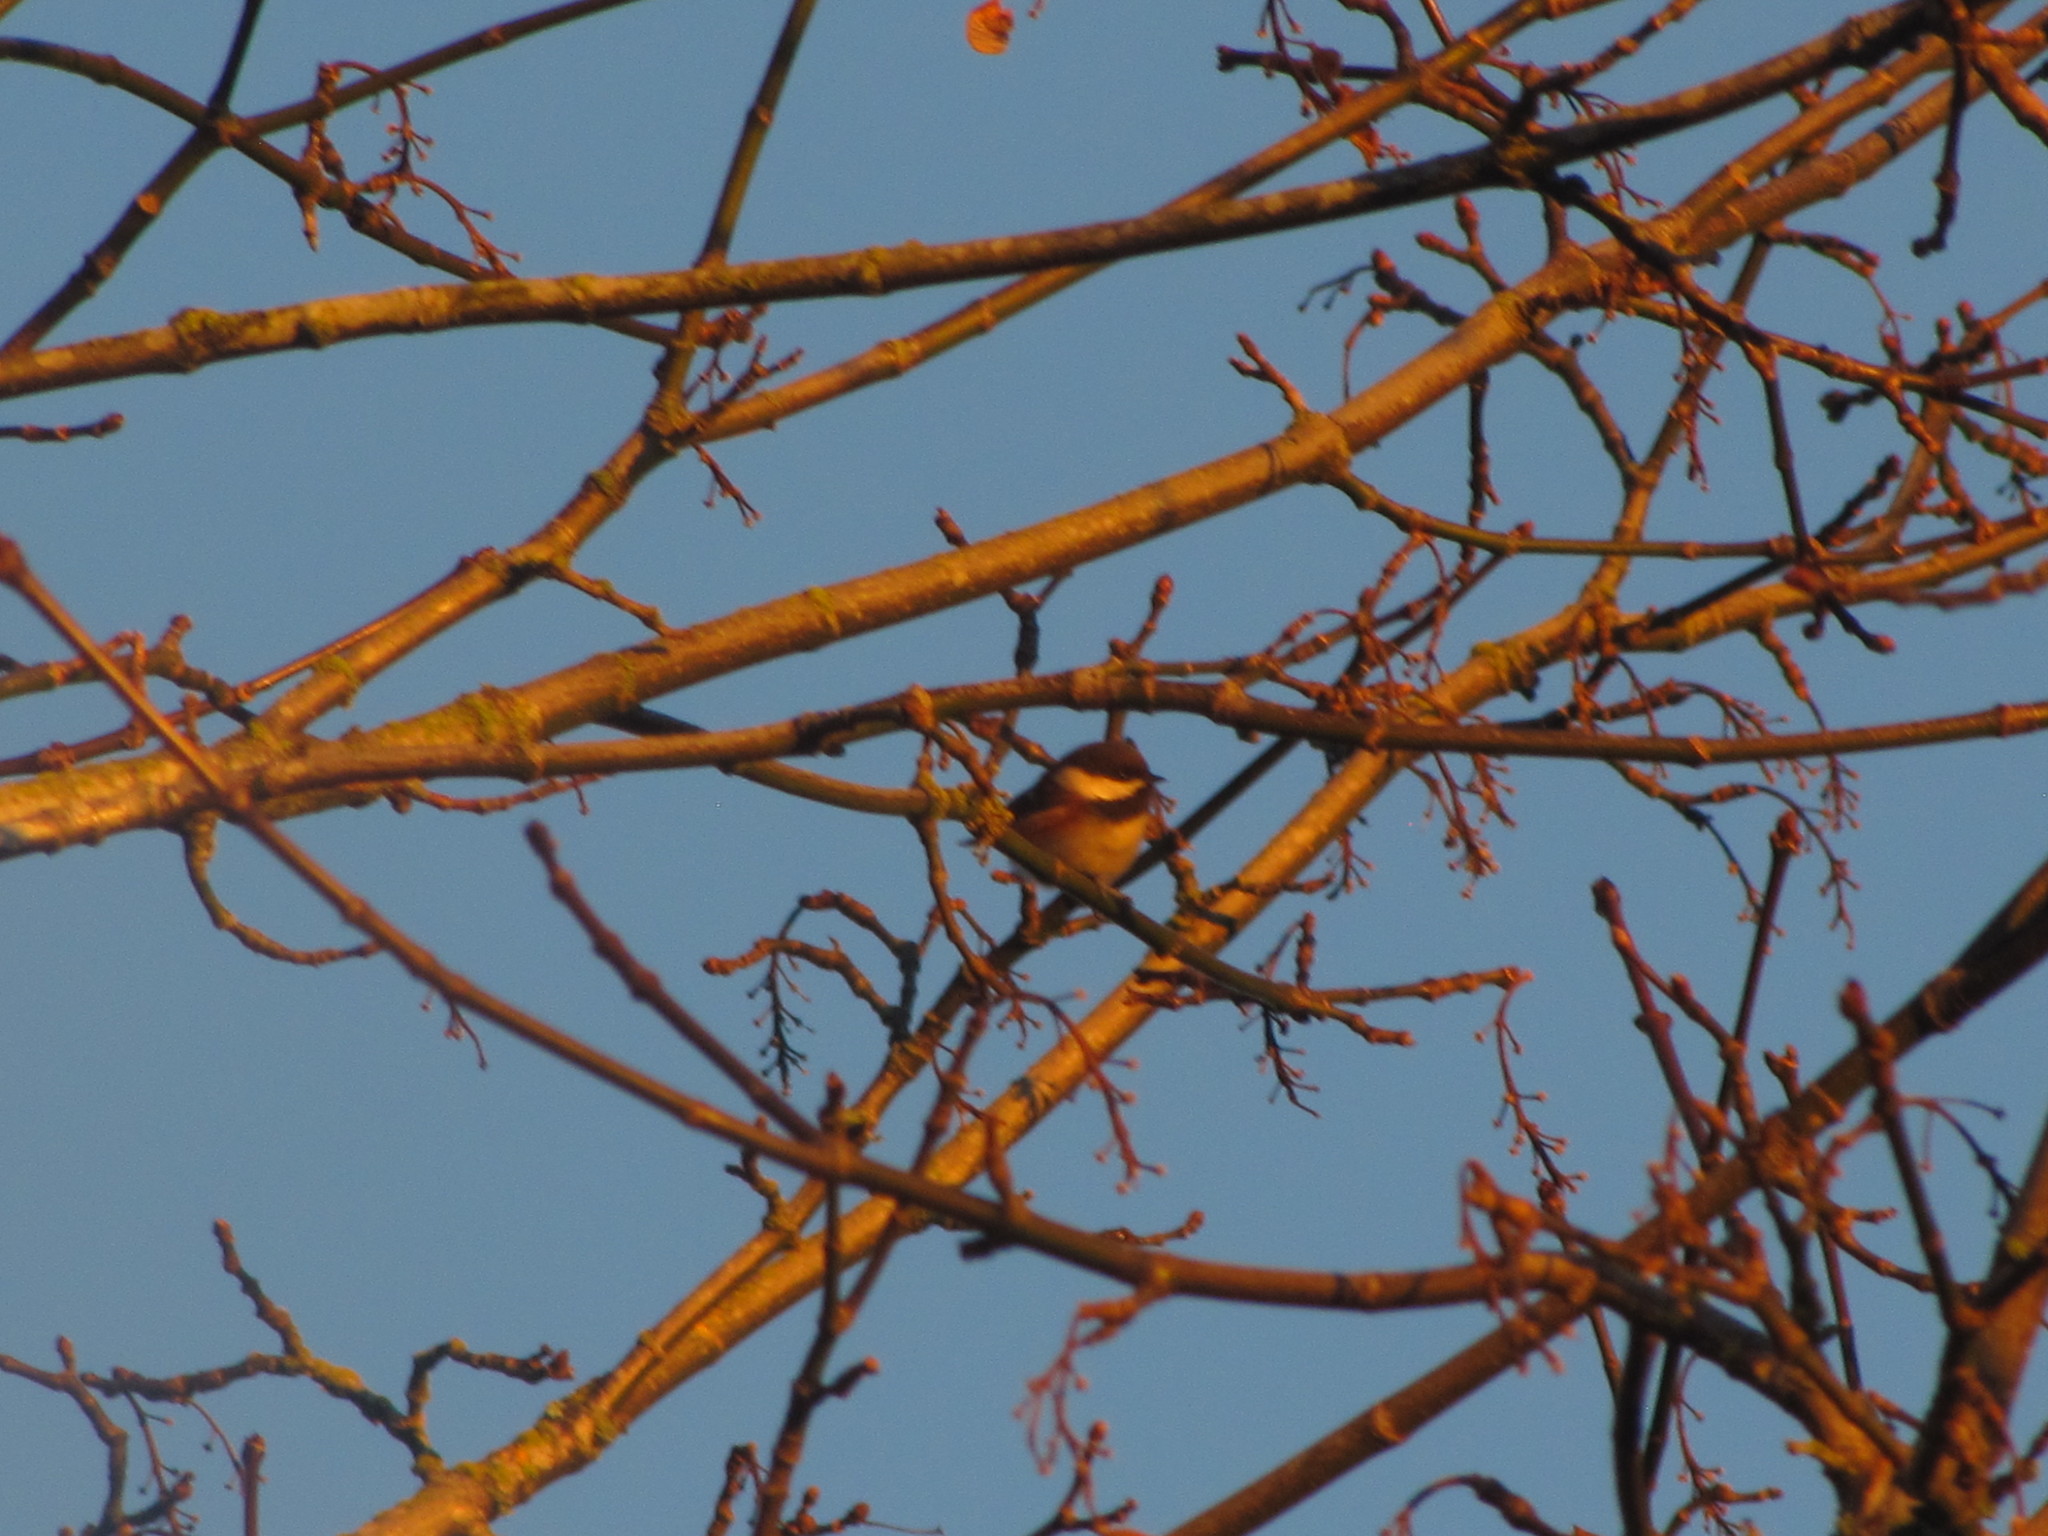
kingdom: Animalia
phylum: Chordata
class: Aves
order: Passeriformes
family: Paridae
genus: Poecile
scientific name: Poecile rufescens
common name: Chestnut-backed chickadee
